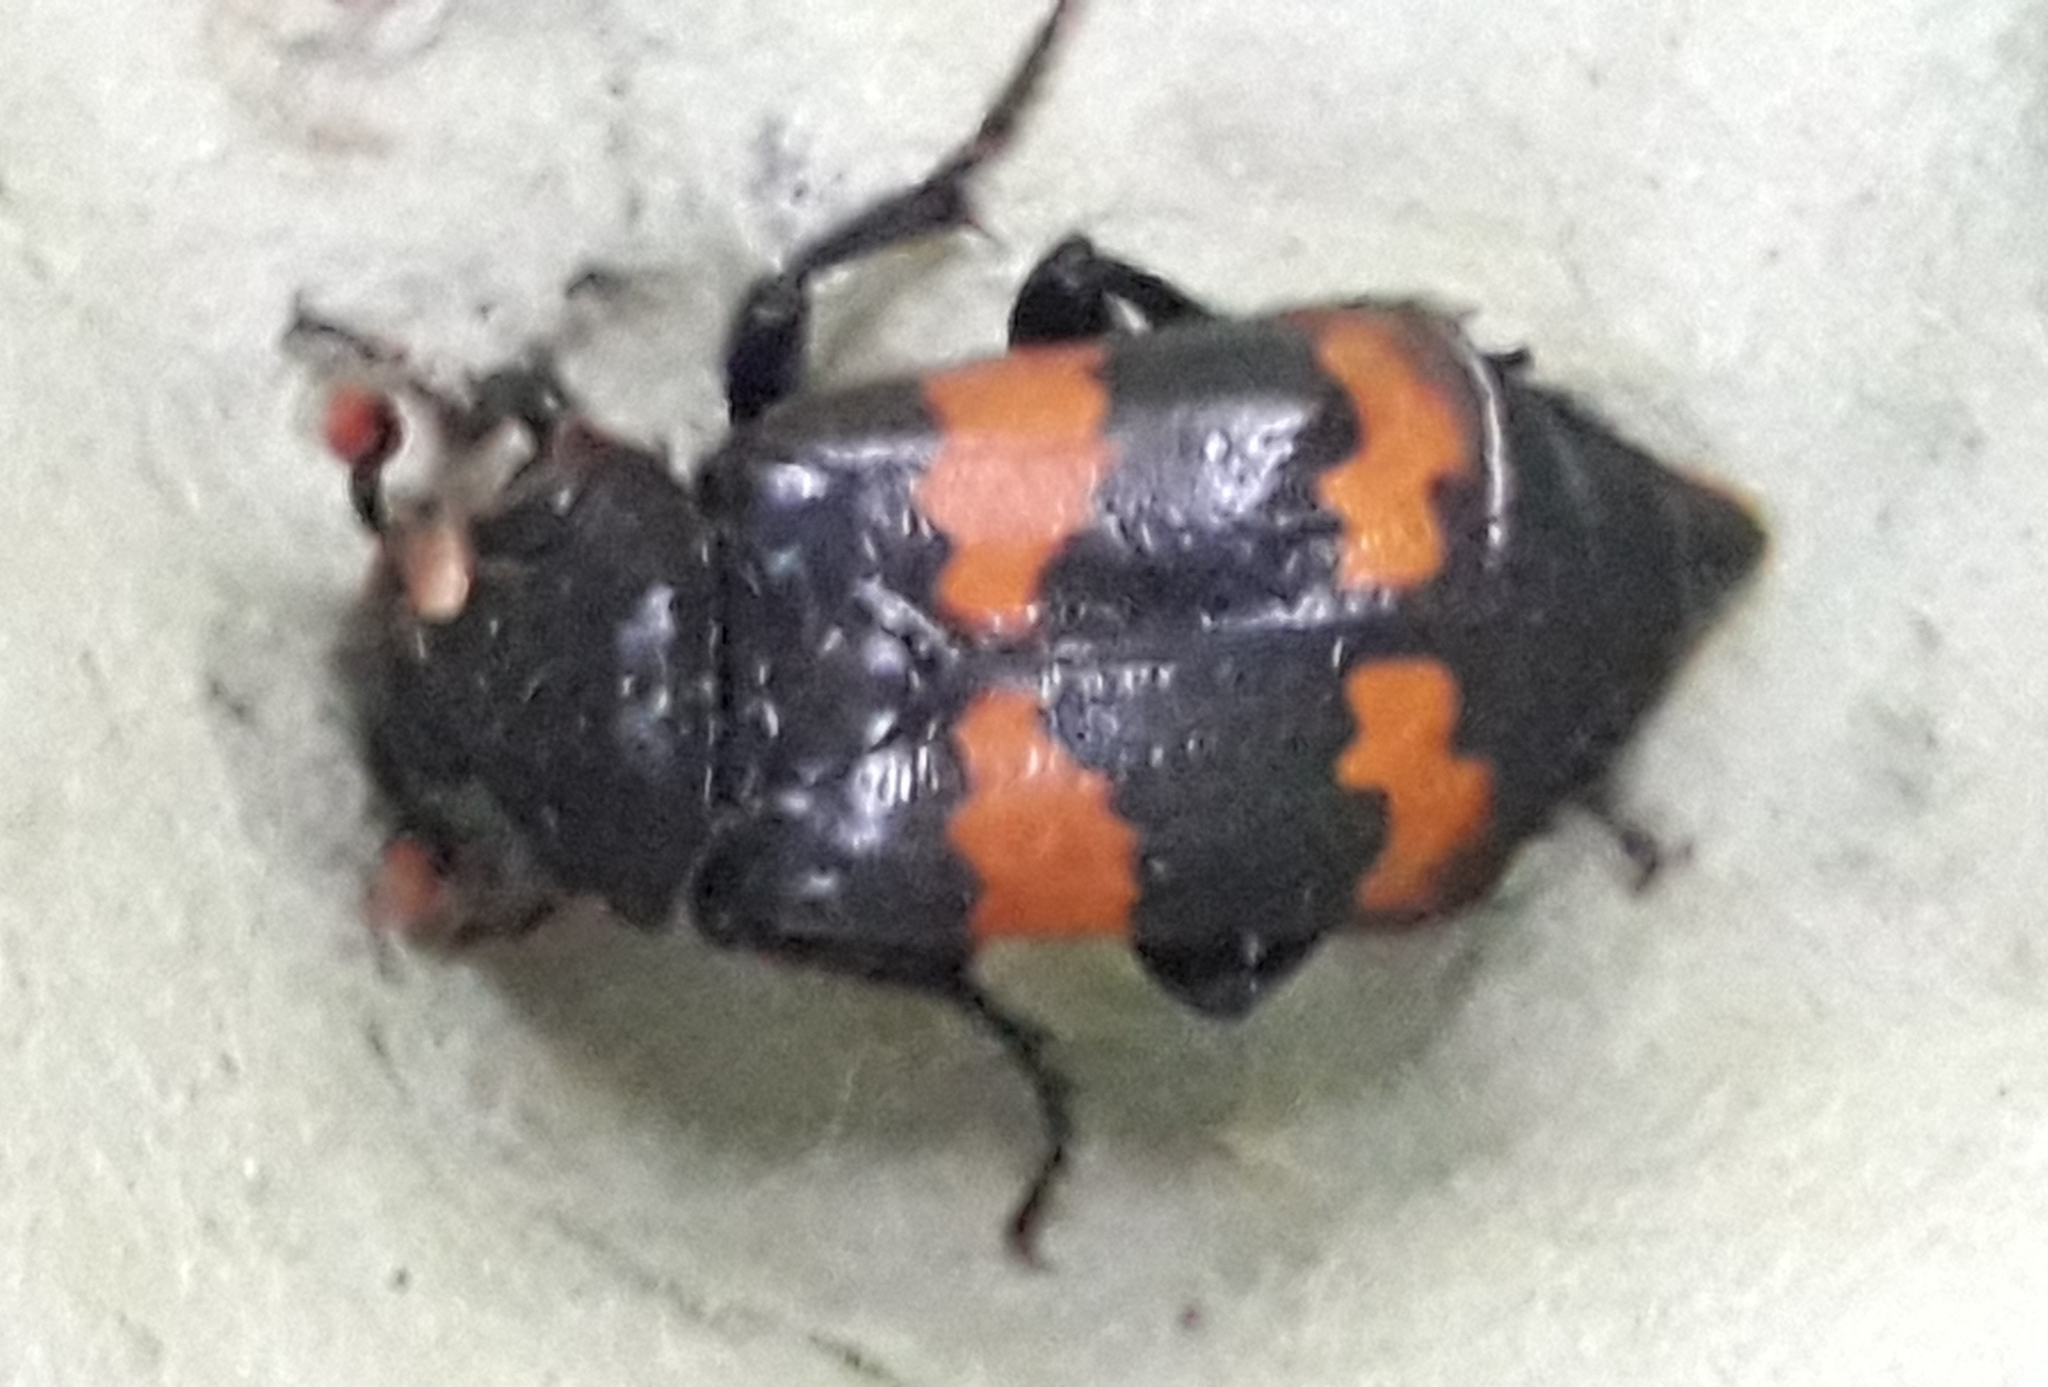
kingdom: Animalia
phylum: Arthropoda
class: Insecta
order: Coleoptera
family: Staphylinidae
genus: Nicrophorus
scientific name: Nicrophorus investigator
